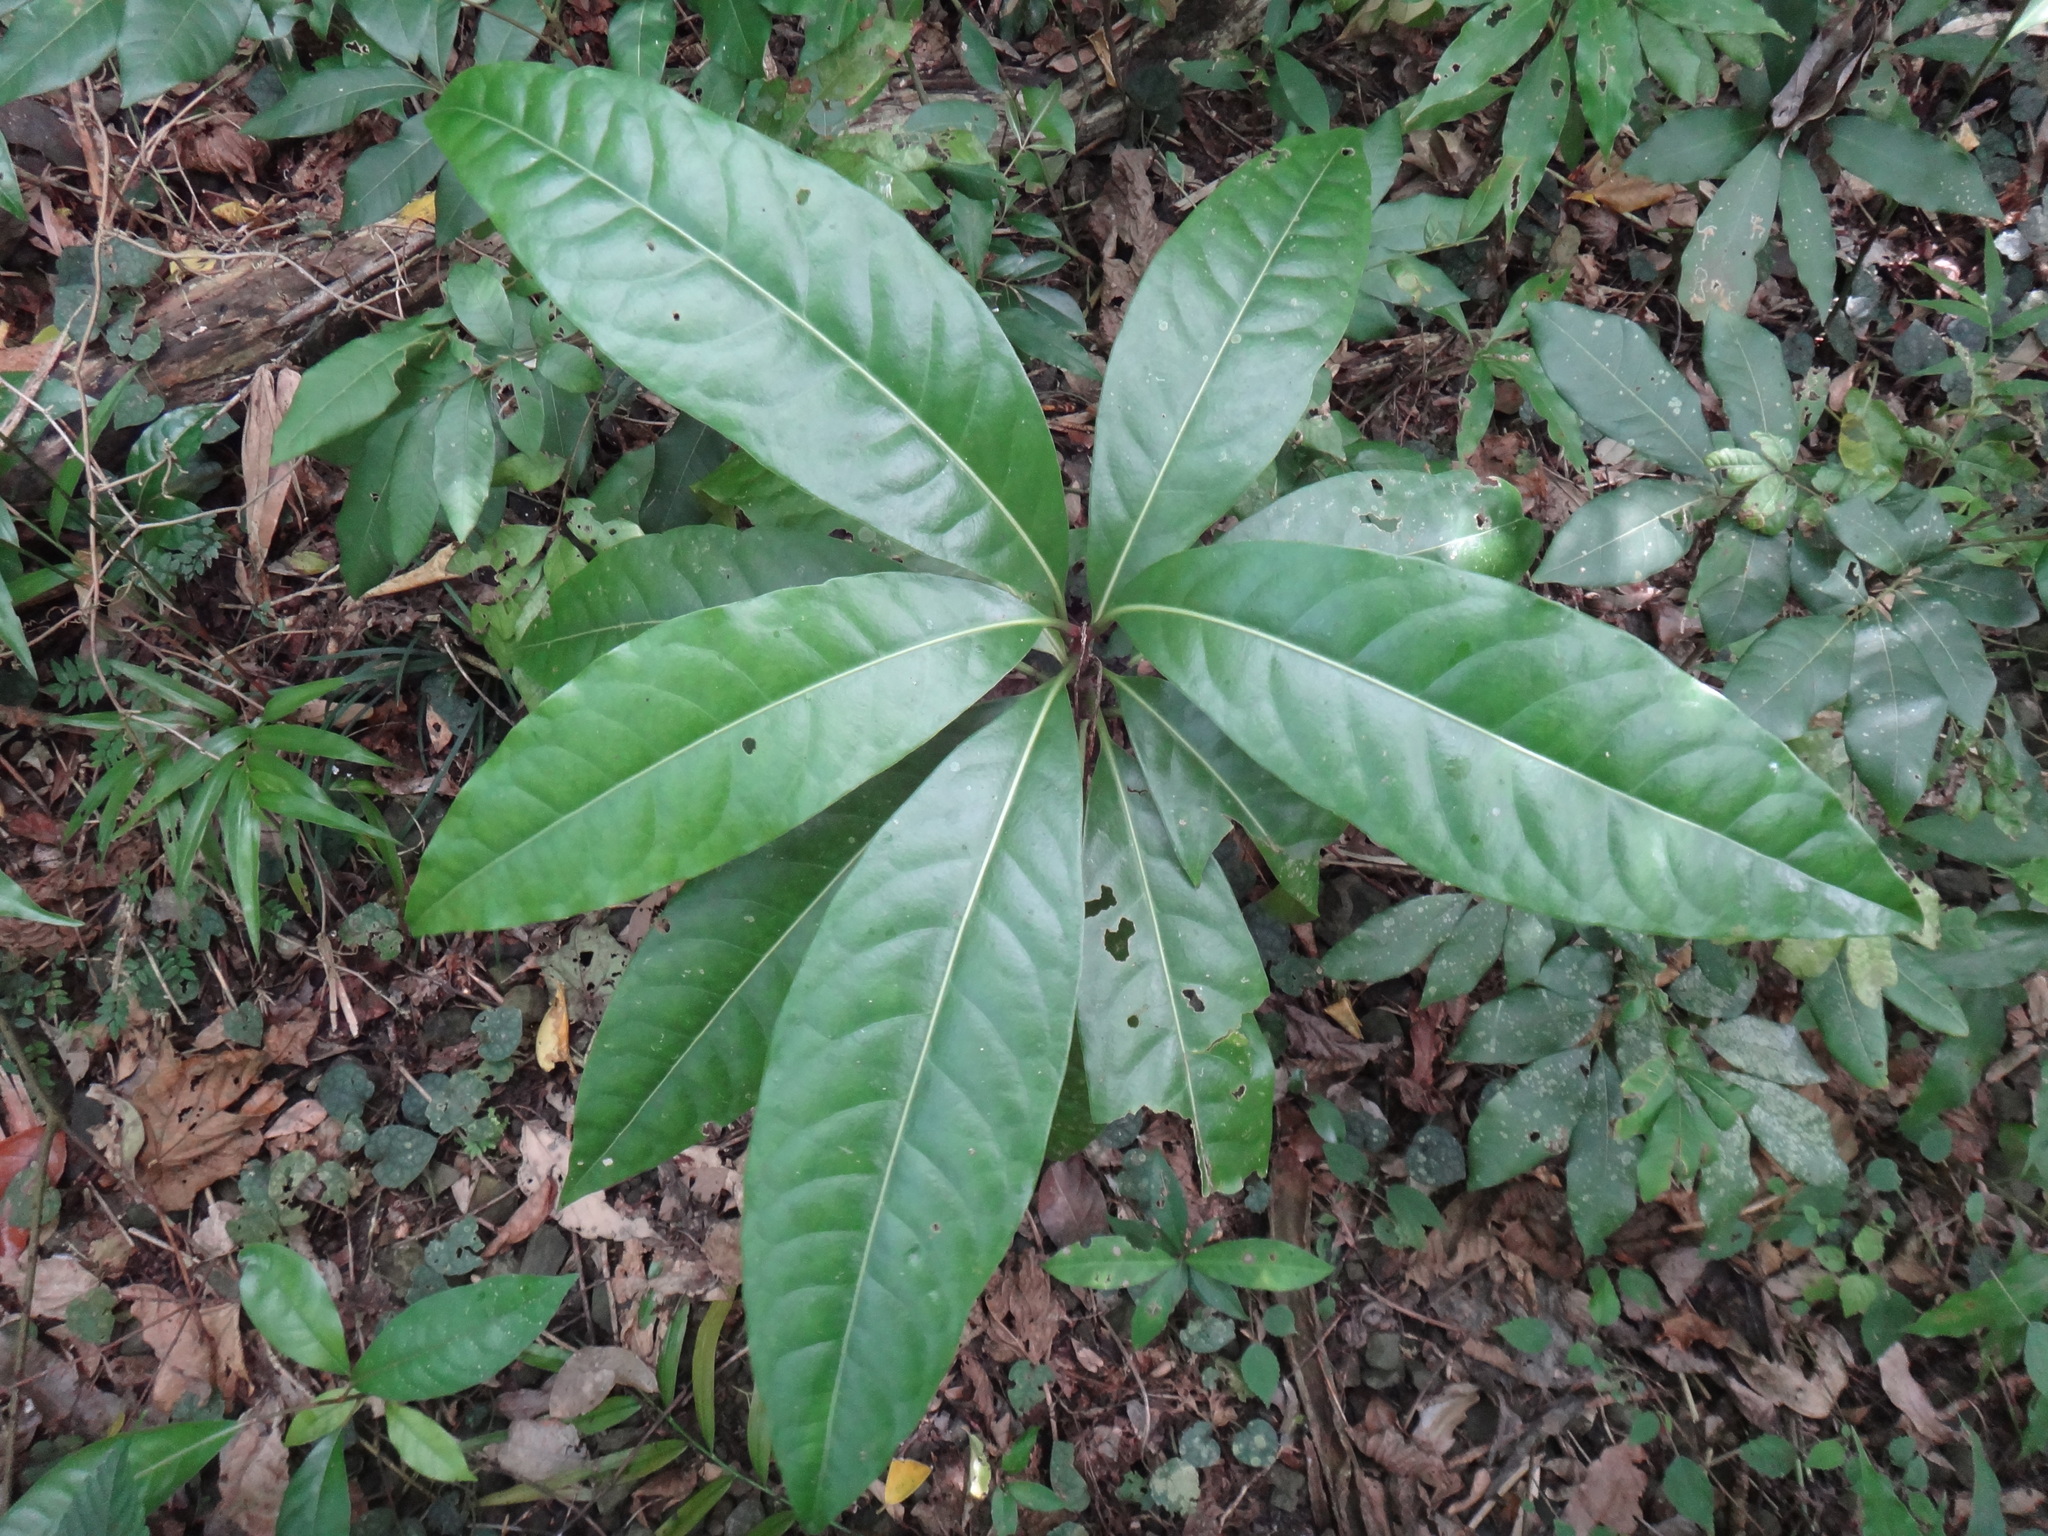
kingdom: Plantae
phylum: Tracheophyta
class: Magnoliopsida
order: Caryophyllales
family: Nyctaginaceae
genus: Ceodes
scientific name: Ceodes umbellifera
